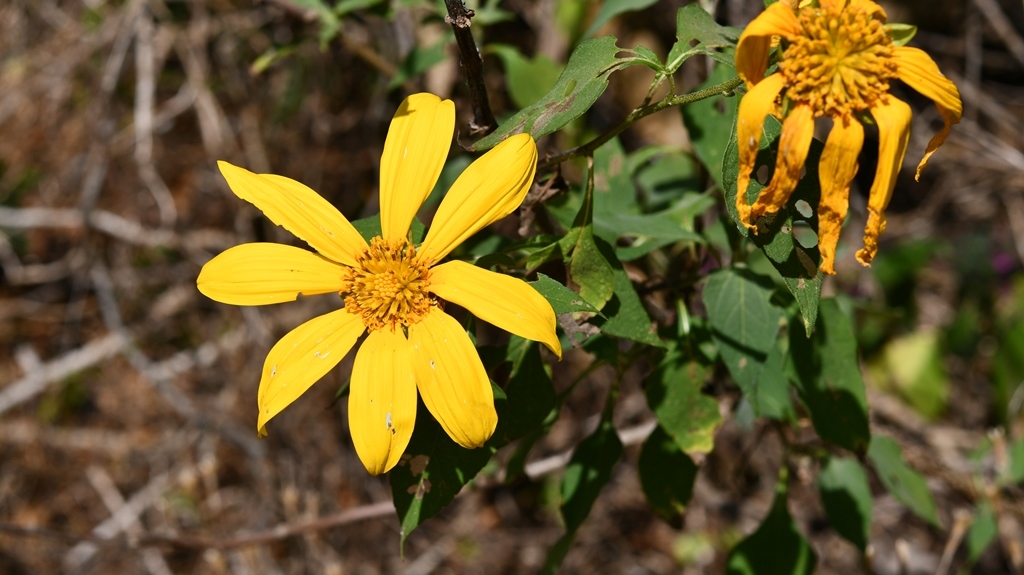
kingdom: Plantae
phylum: Tracheophyta
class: Magnoliopsida
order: Asterales
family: Asteraceae
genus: Tithonia
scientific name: Tithonia diversifolia
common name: Tree marigold
